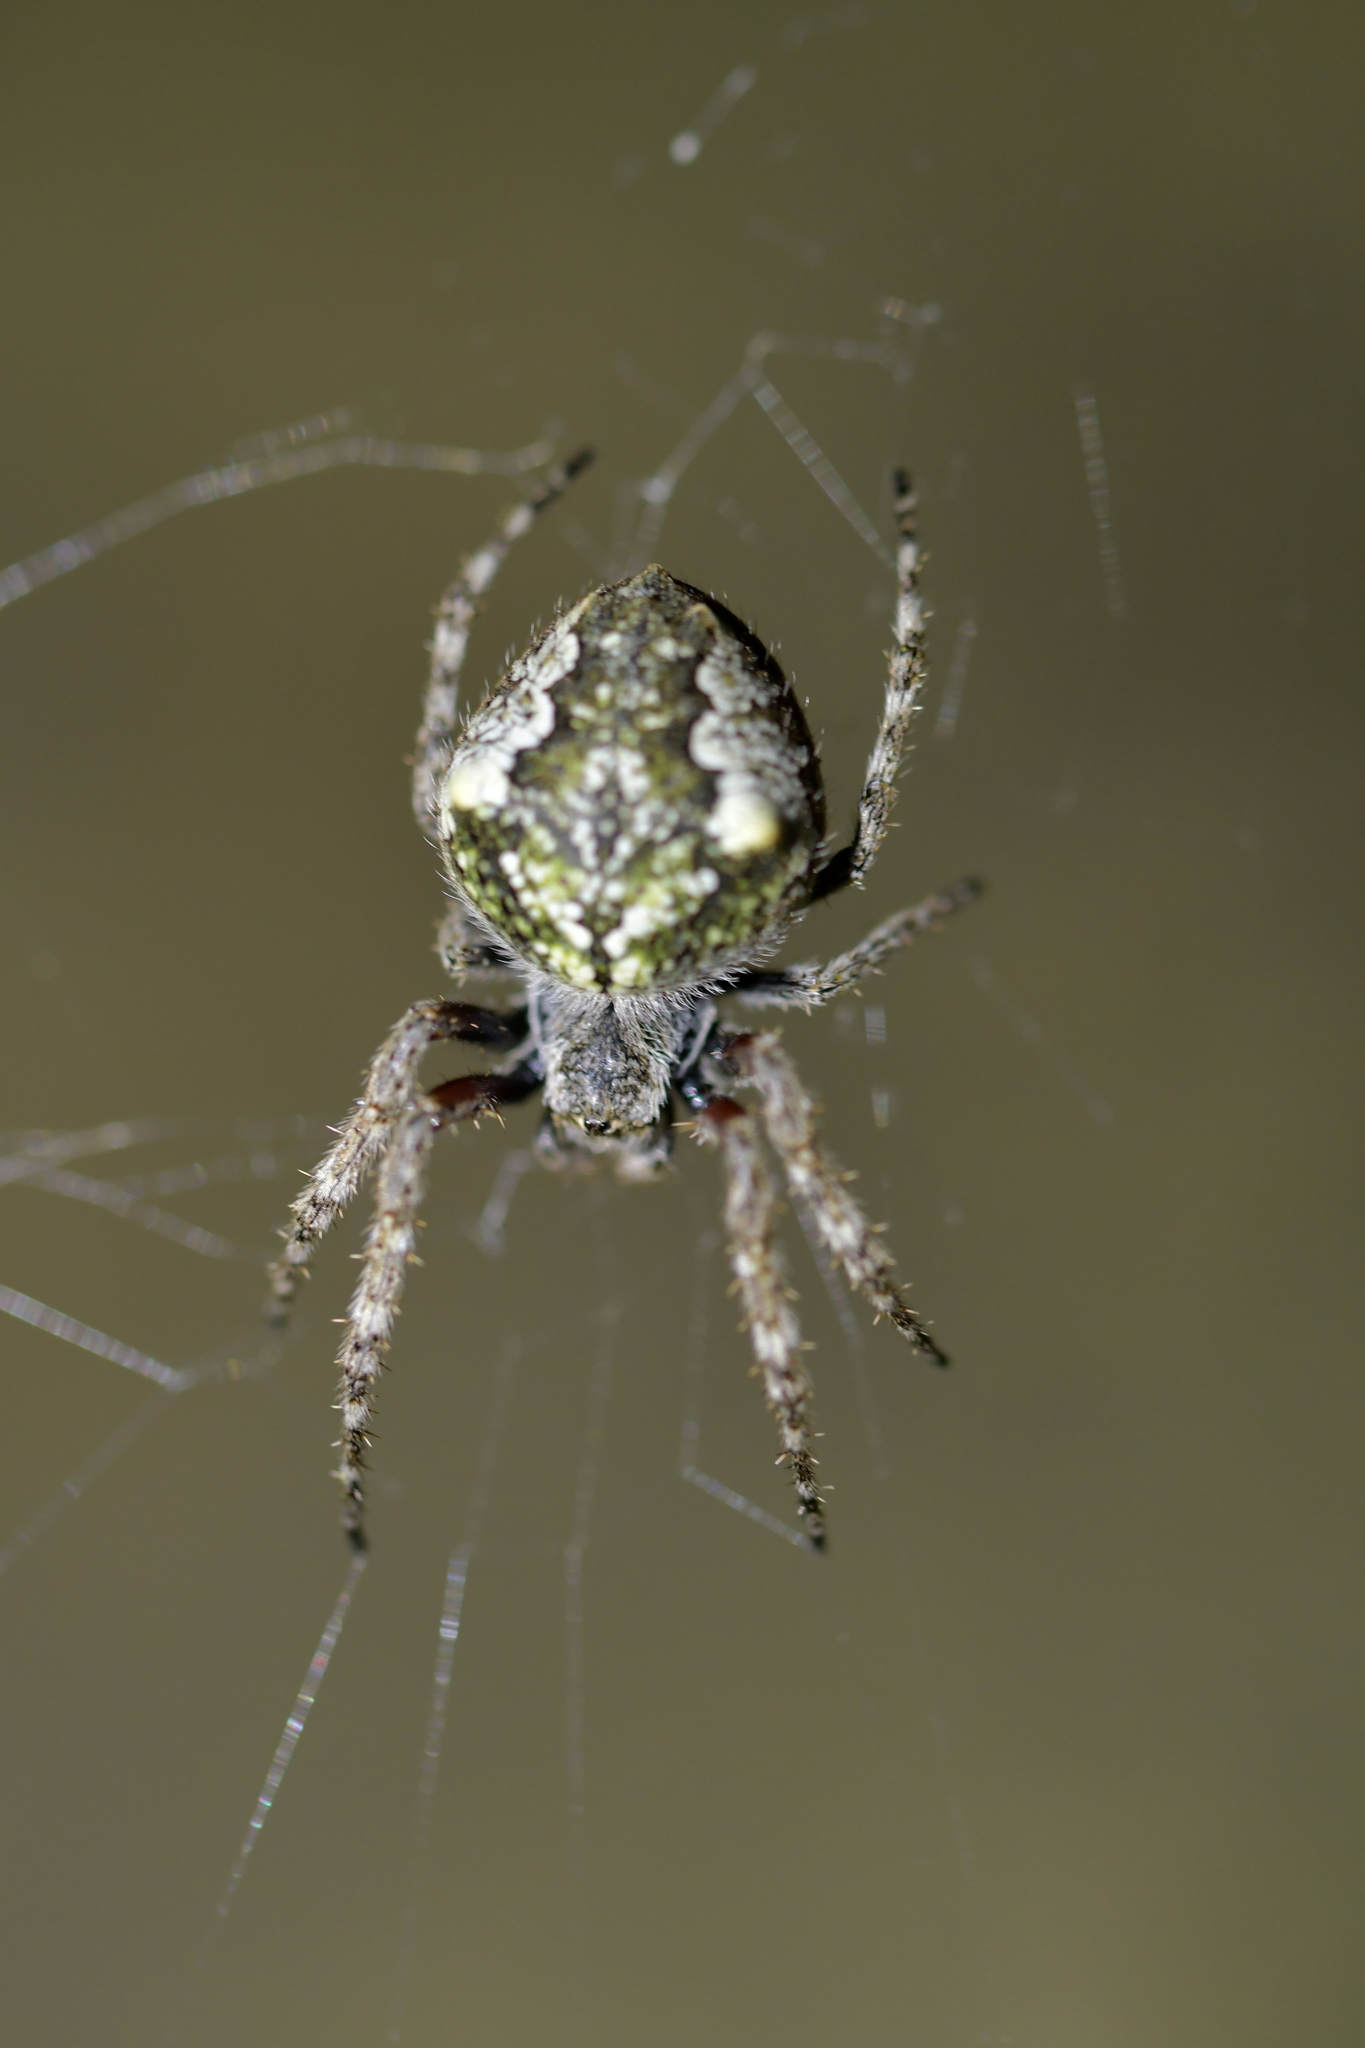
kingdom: Animalia
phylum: Arthropoda
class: Arachnida
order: Araneae
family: Araneidae
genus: Eriophora
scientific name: Eriophora pustulosa
